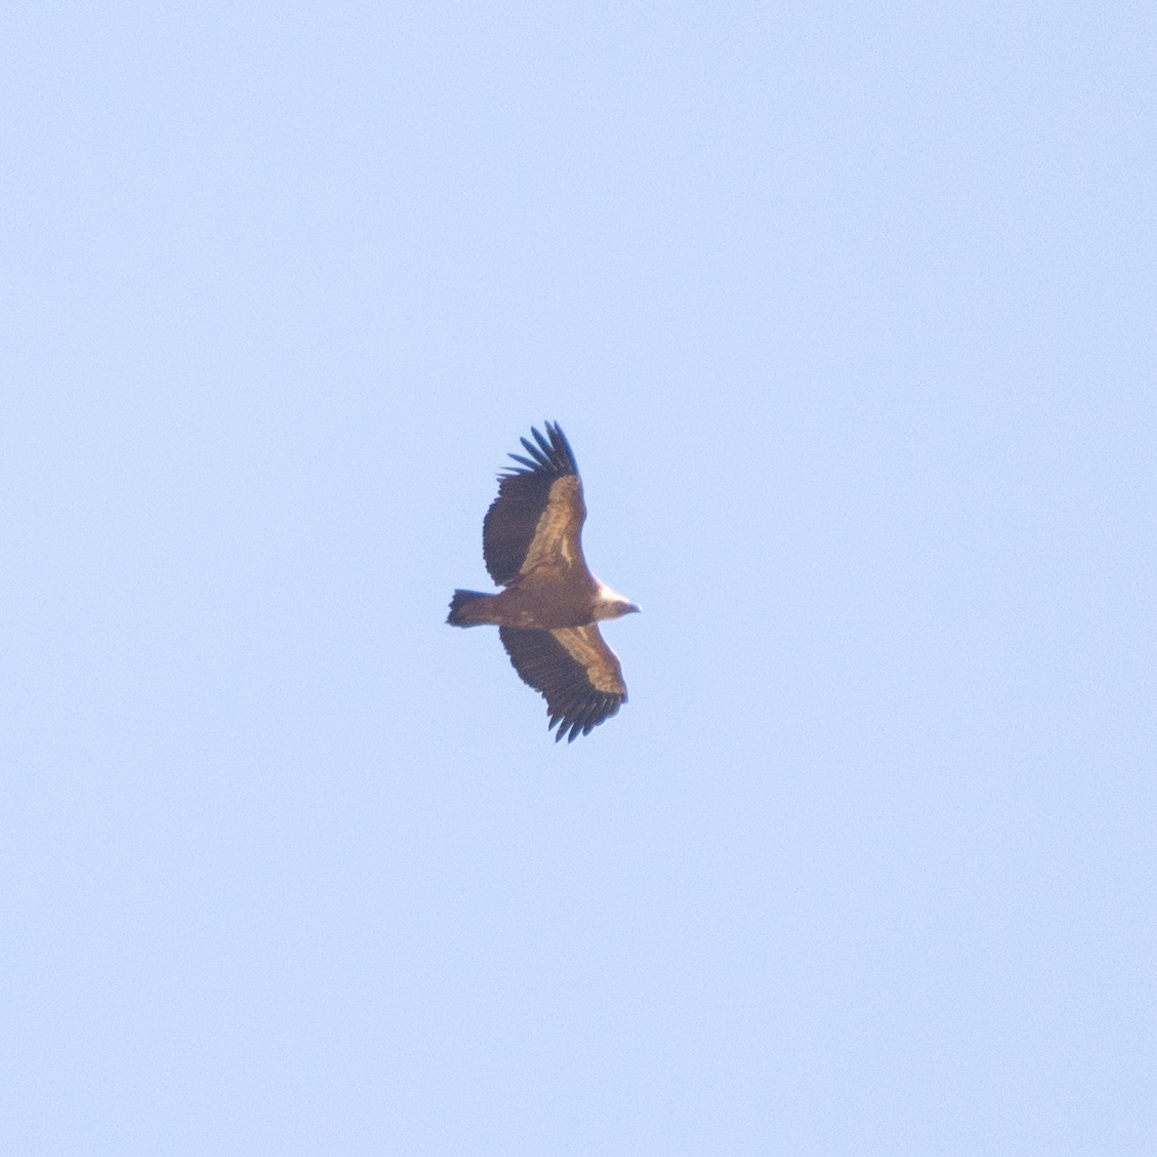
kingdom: Animalia
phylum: Chordata
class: Aves
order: Accipitriformes
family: Accipitridae
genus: Gyps
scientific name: Gyps fulvus
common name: Griffon vulture
